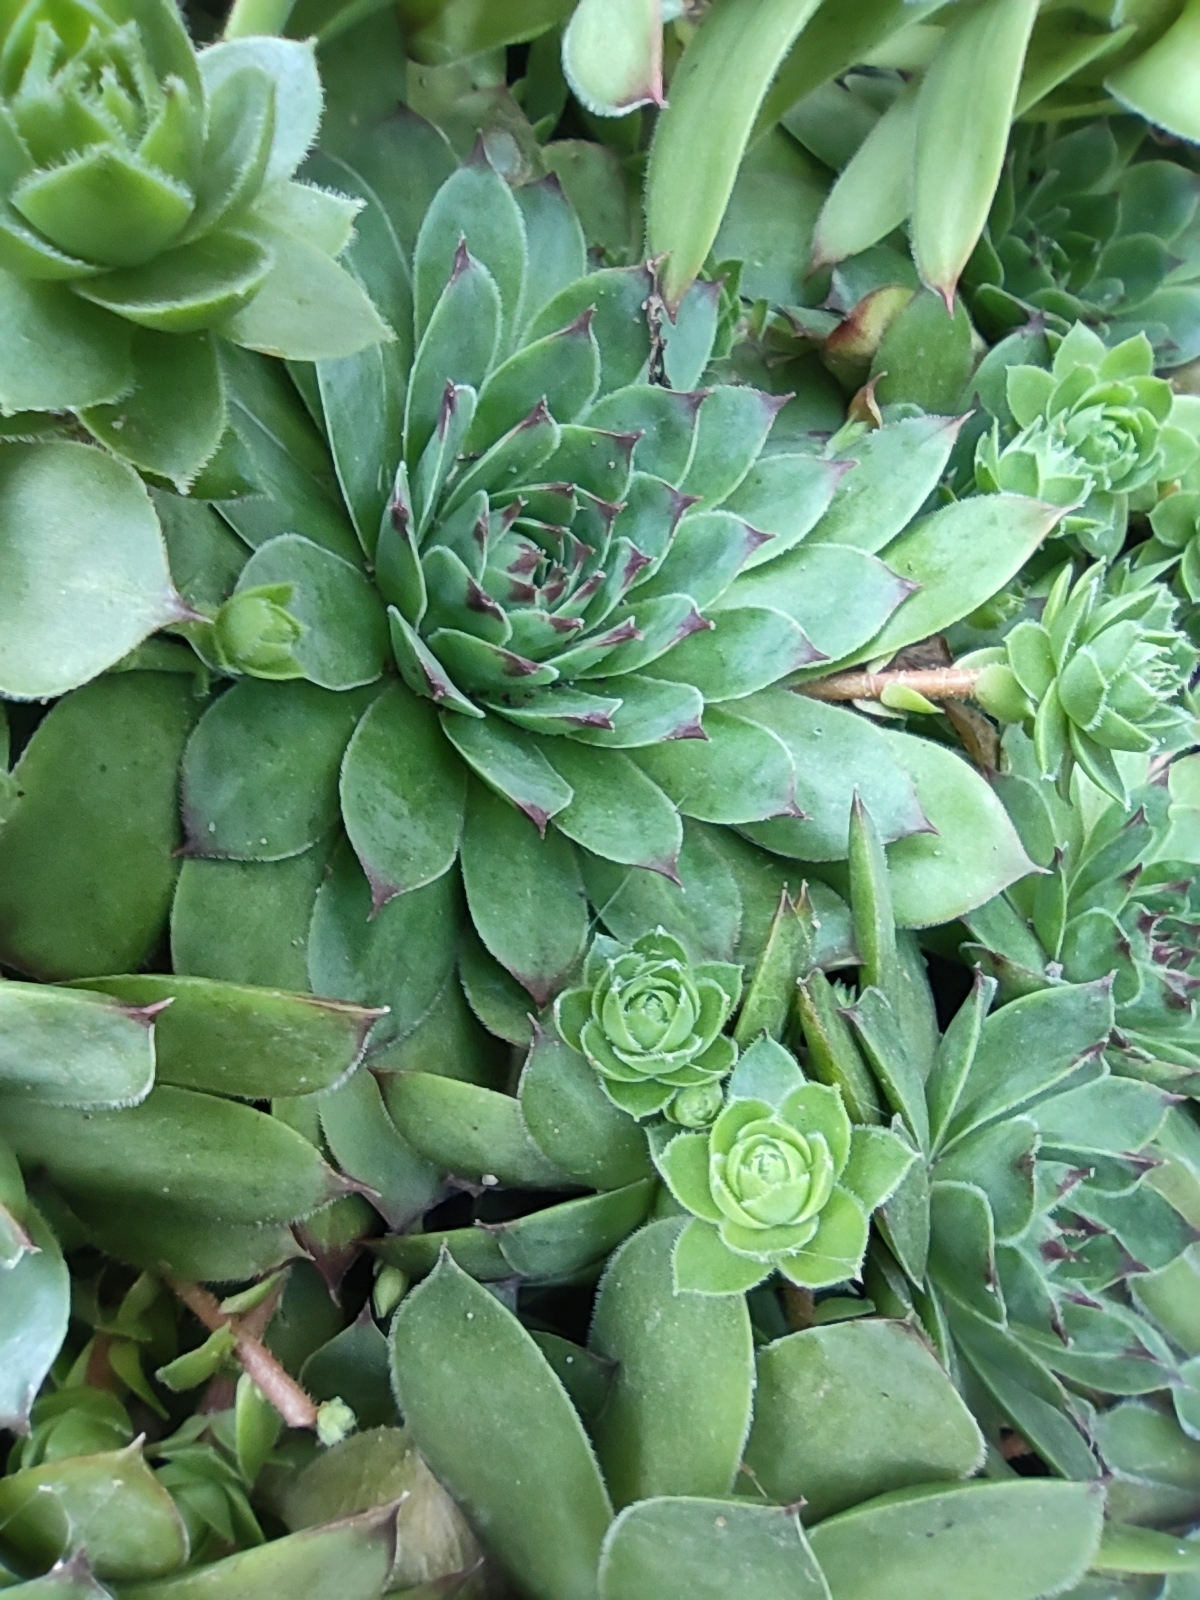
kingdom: Plantae
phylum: Tracheophyta
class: Magnoliopsida
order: Saxifragales
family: Crassulaceae
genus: Sempervivum
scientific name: Sempervivum tectorum
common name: House-leek
